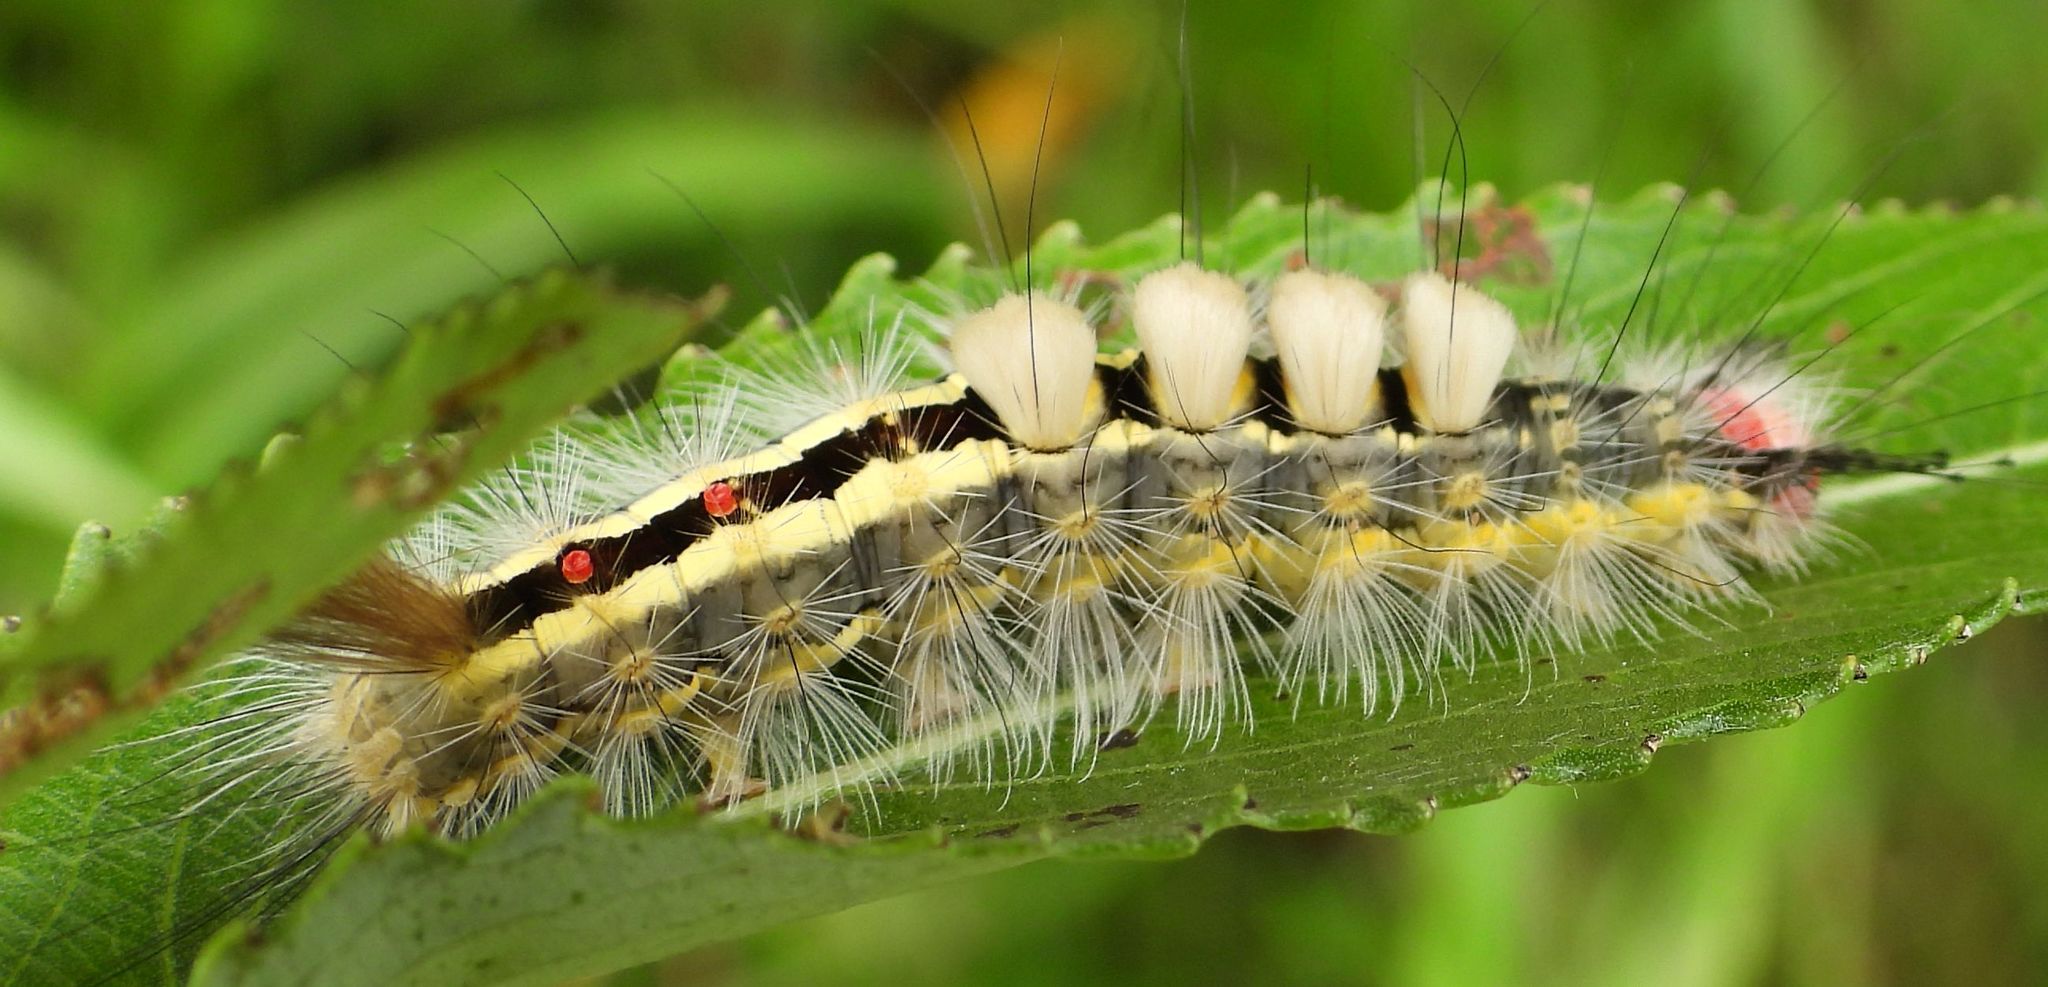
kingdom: Animalia
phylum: Arthropoda
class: Insecta
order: Lepidoptera
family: Erebidae
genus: Orgyia
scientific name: Orgyia leucostigma
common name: White-marked tussock moth
